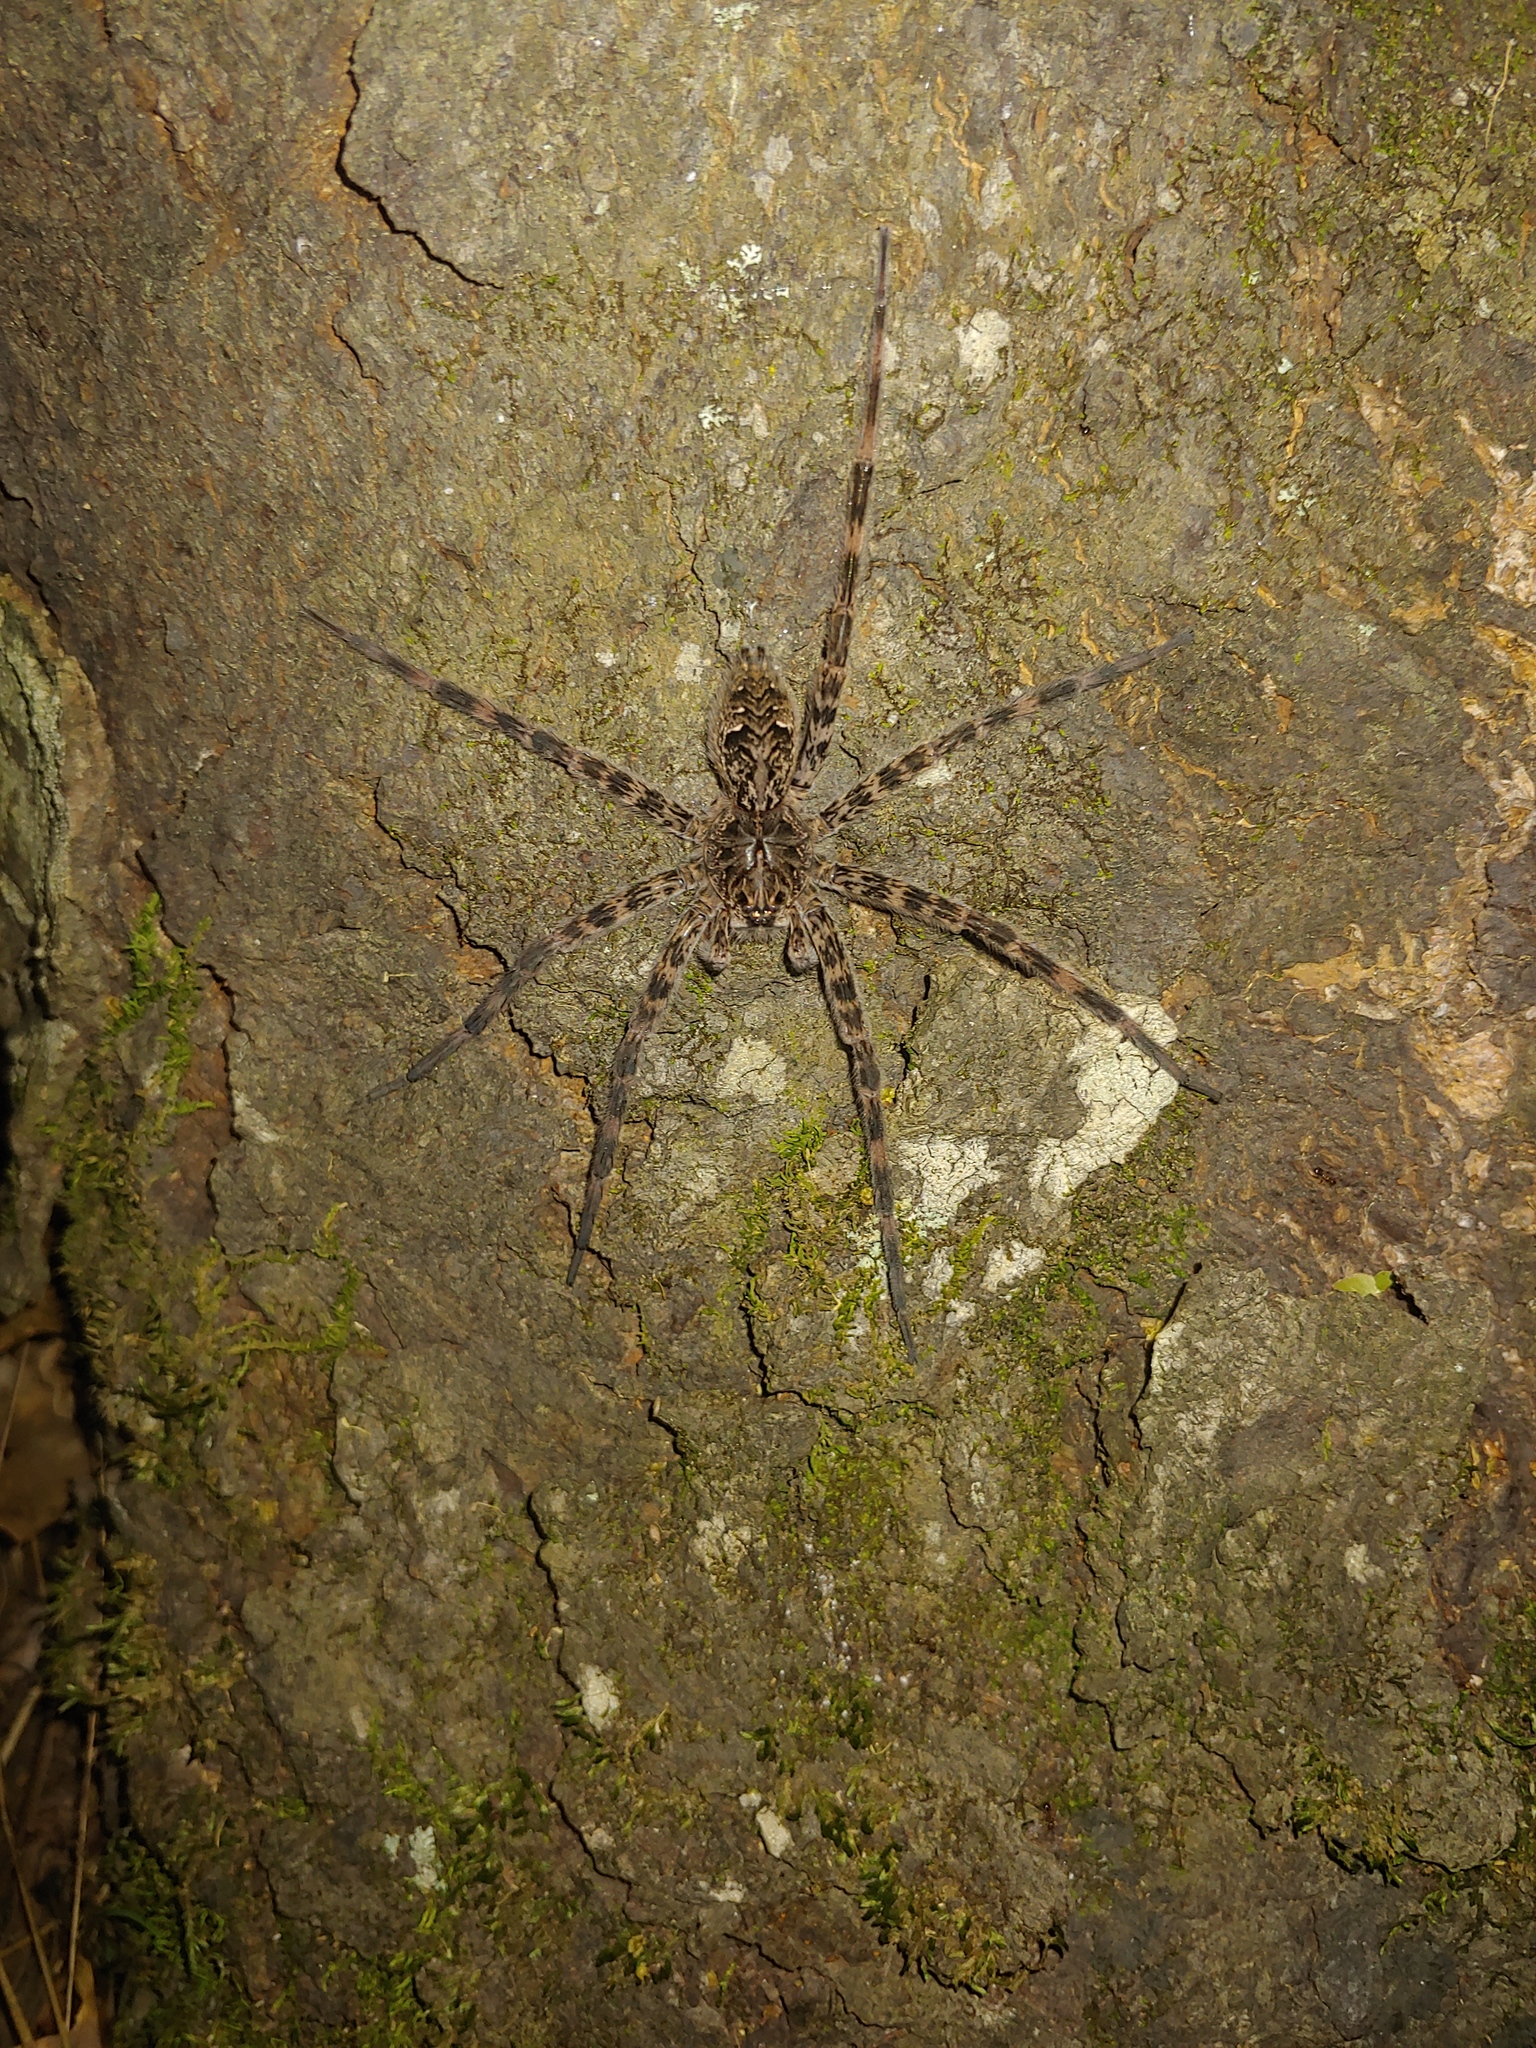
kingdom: Animalia
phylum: Arthropoda
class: Arachnida
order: Araneae
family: Pisauridae
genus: Dolomedes
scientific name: Dolomedes tenebrosus
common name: Dark fishing spider
